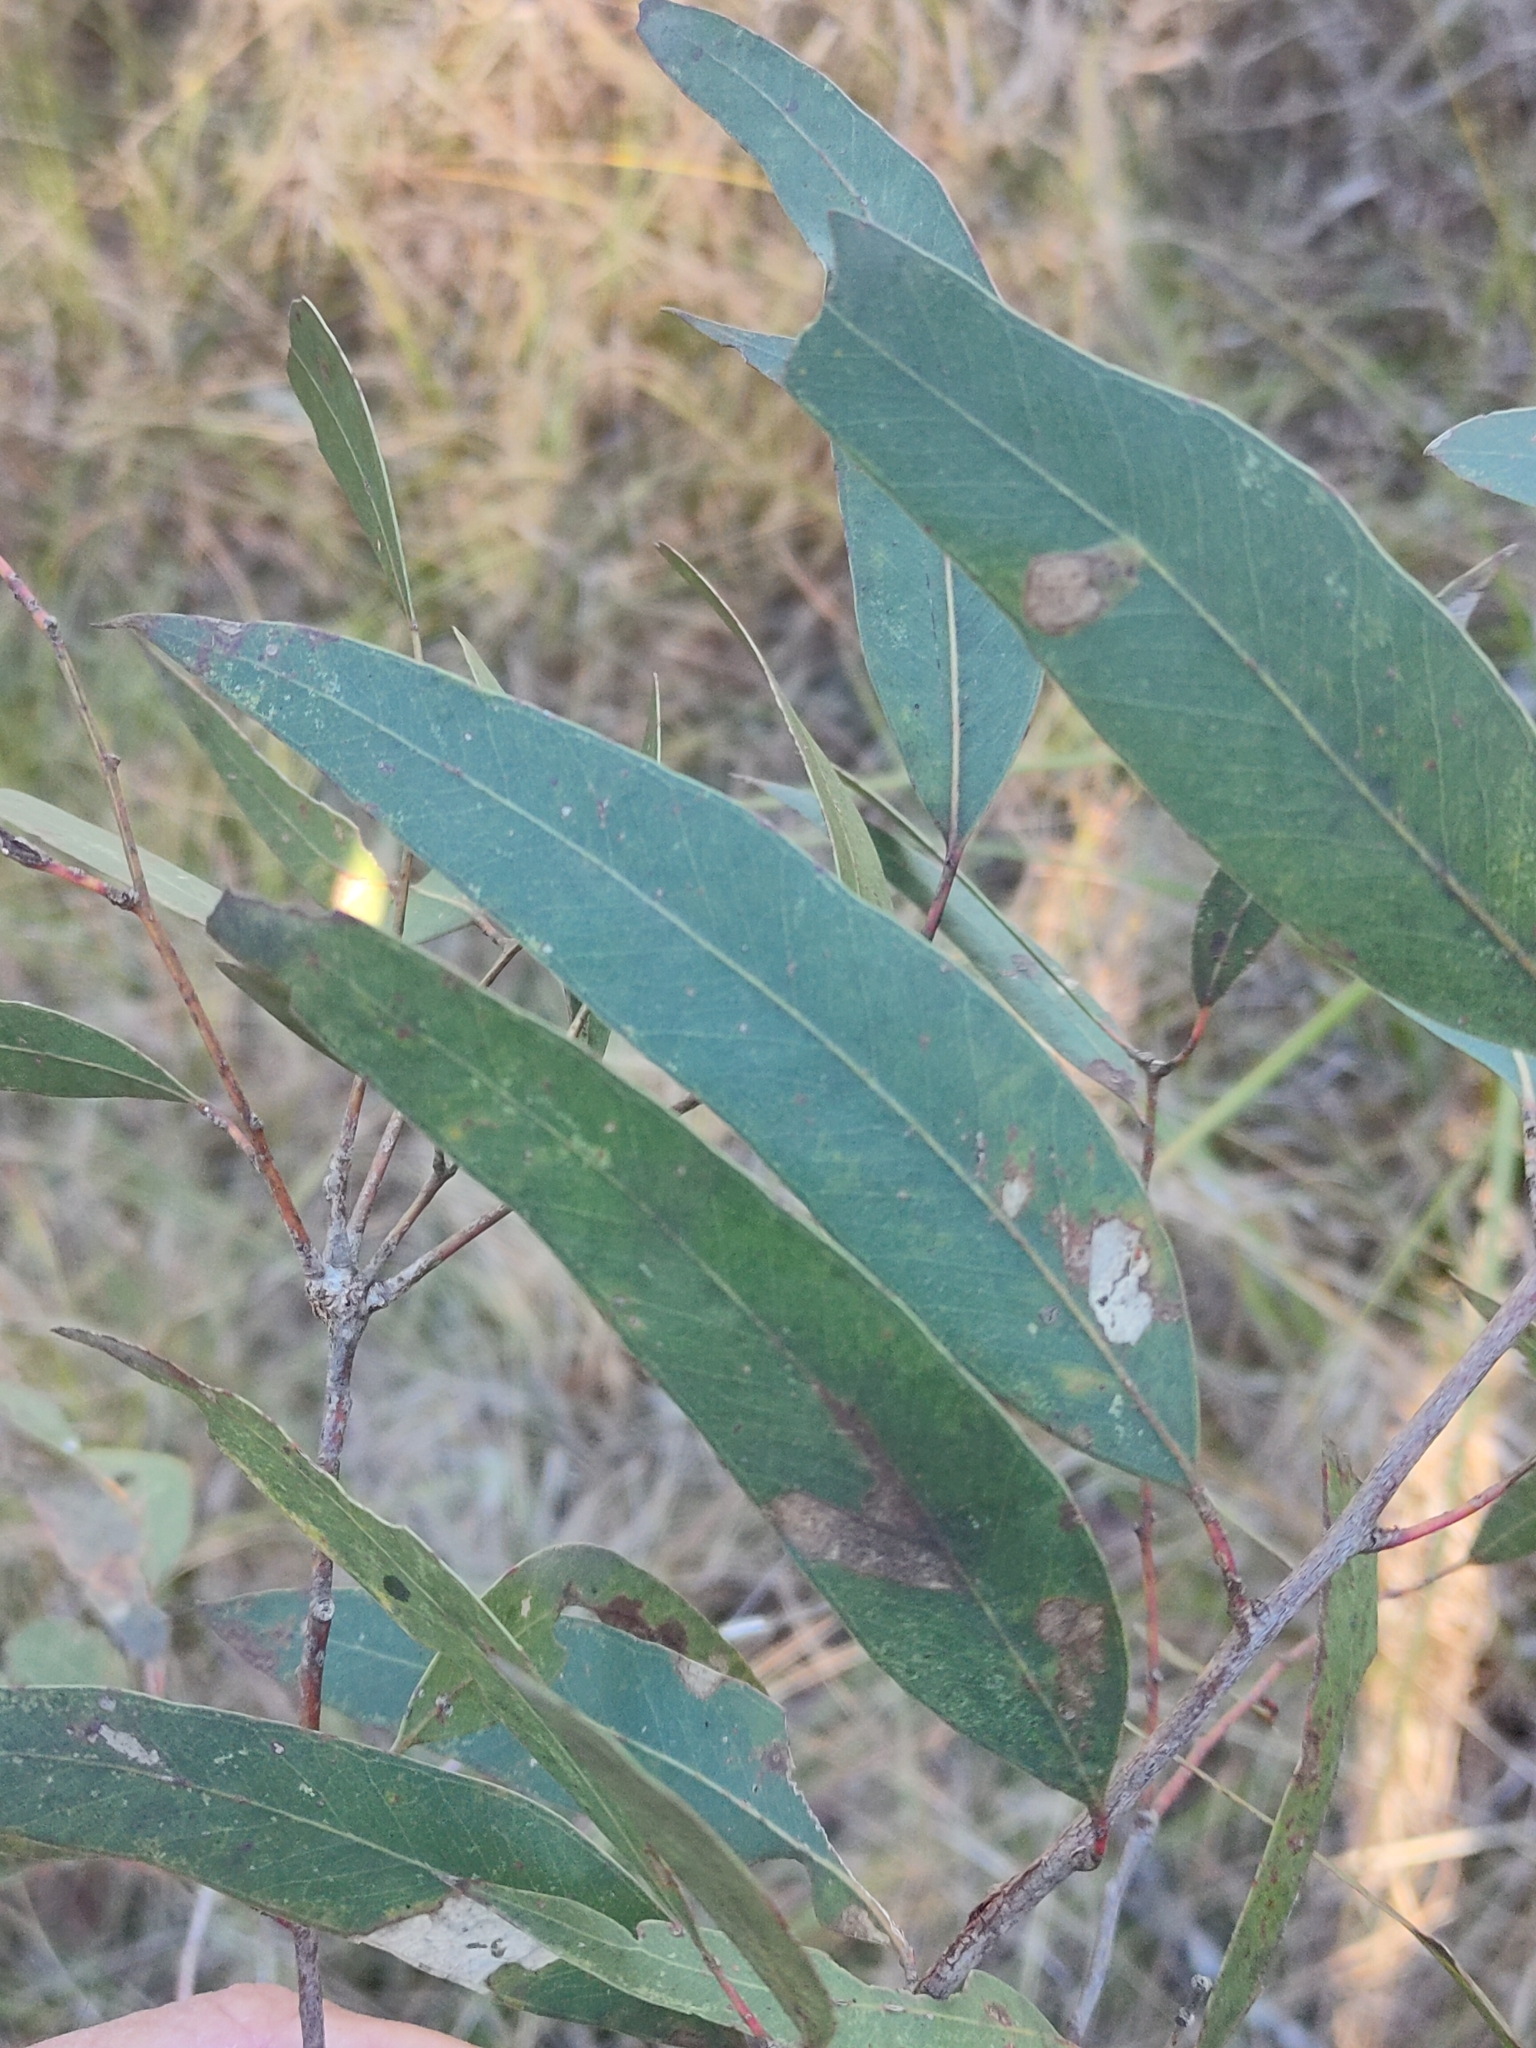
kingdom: Plantae
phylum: Tracheophyta
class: Magnoliopsida
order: Myrtales
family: Myrtaceae
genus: Eucalyptus
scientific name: Eucalyptus exserta
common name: Peppermint-bendo
